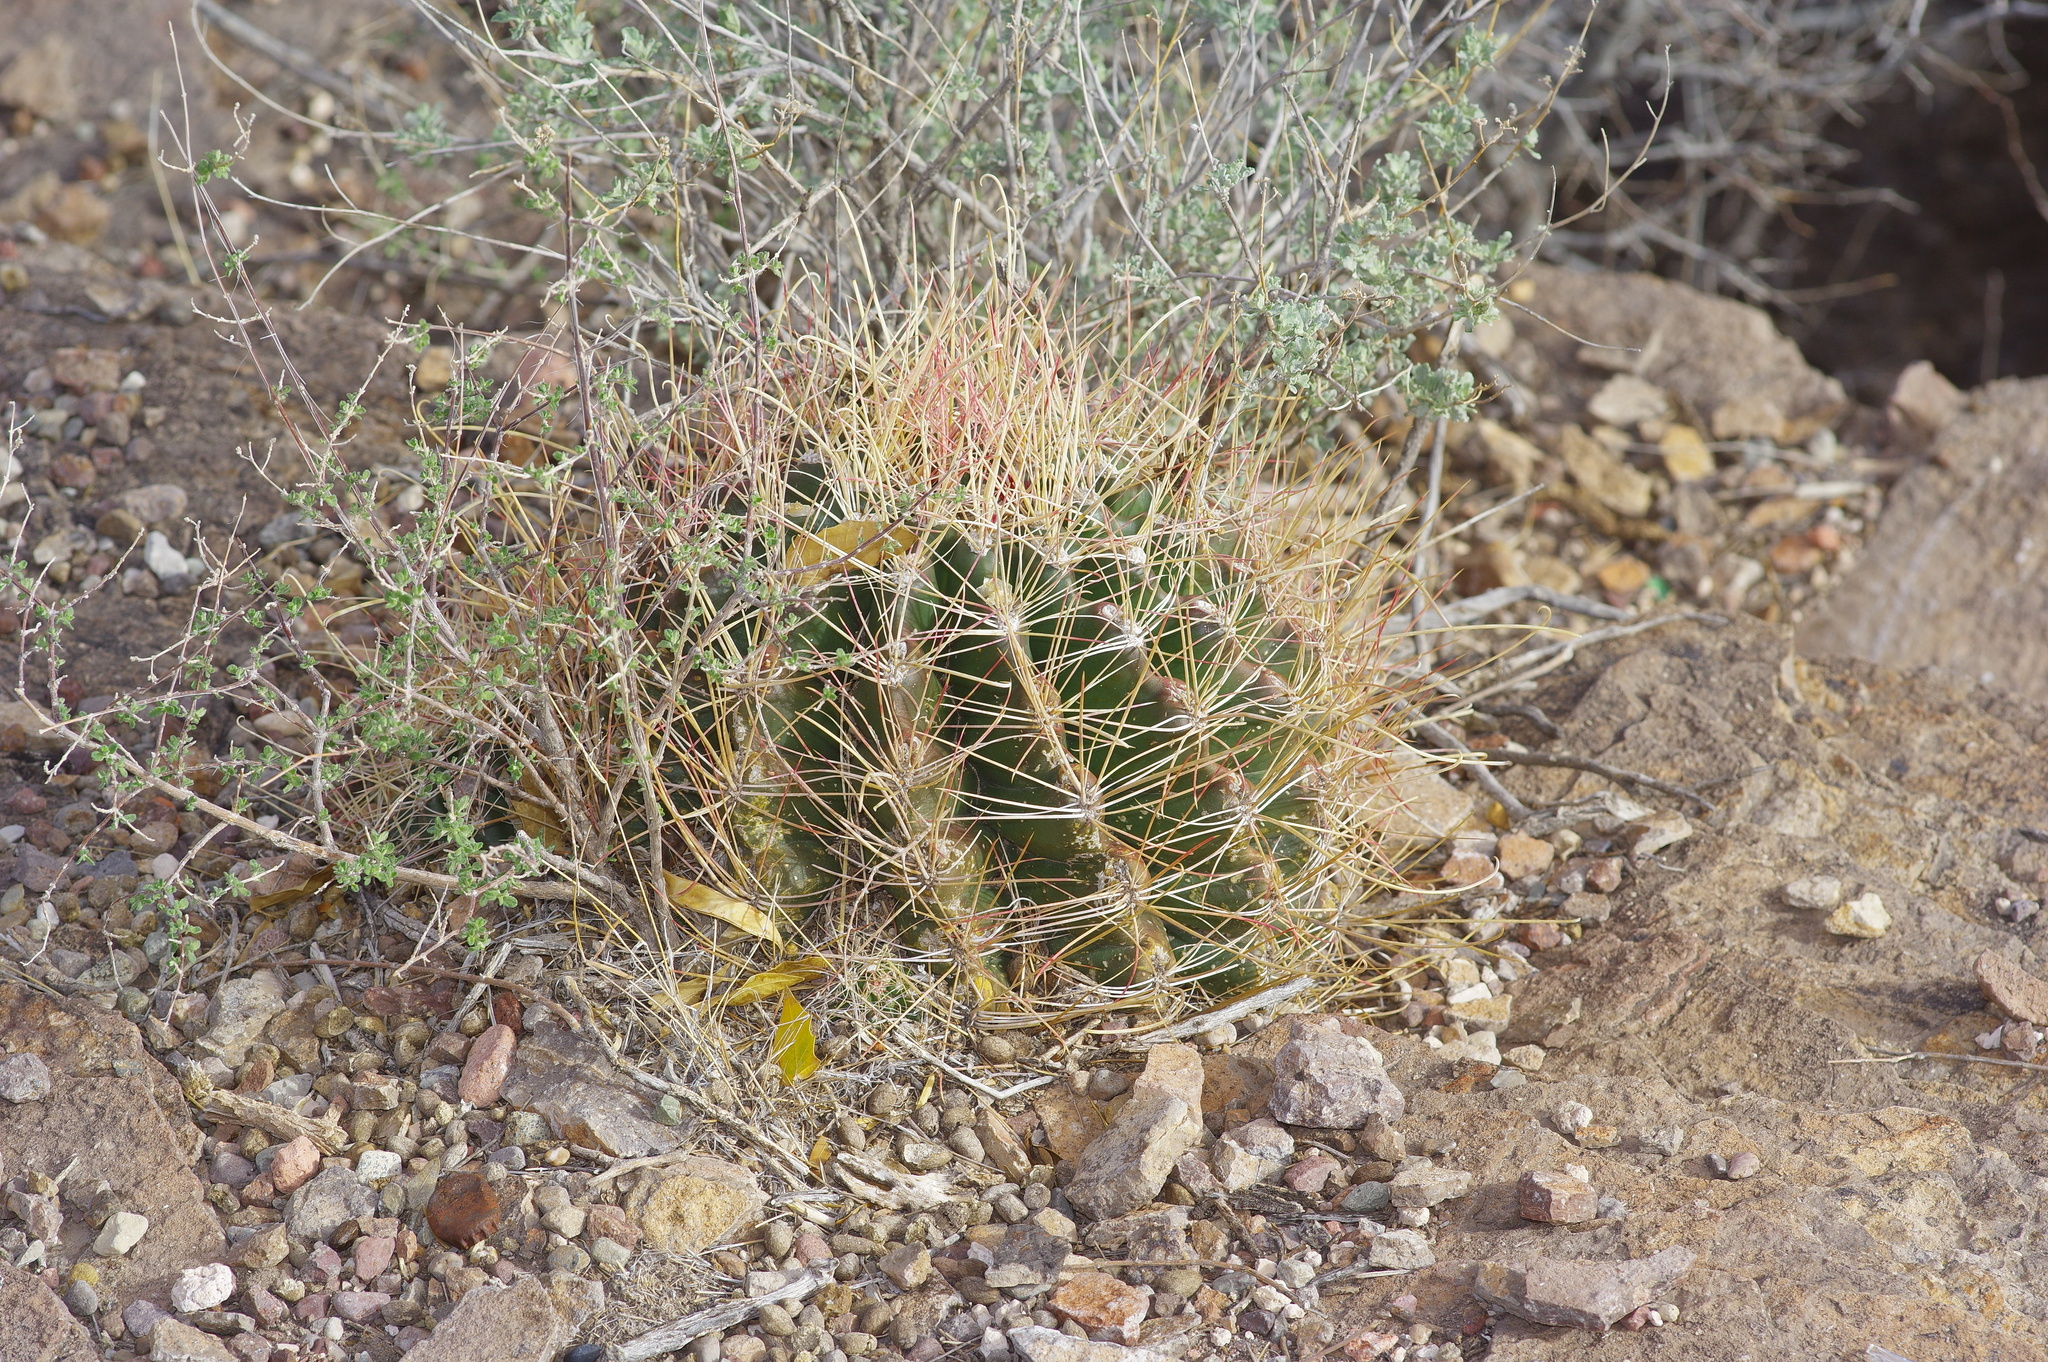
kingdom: Plantae
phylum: Tracheophyta
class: Magnoliopsida
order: Caryophyllales
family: Cactaceae
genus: Bisnaga
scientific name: Bisnaga hamatacantha
